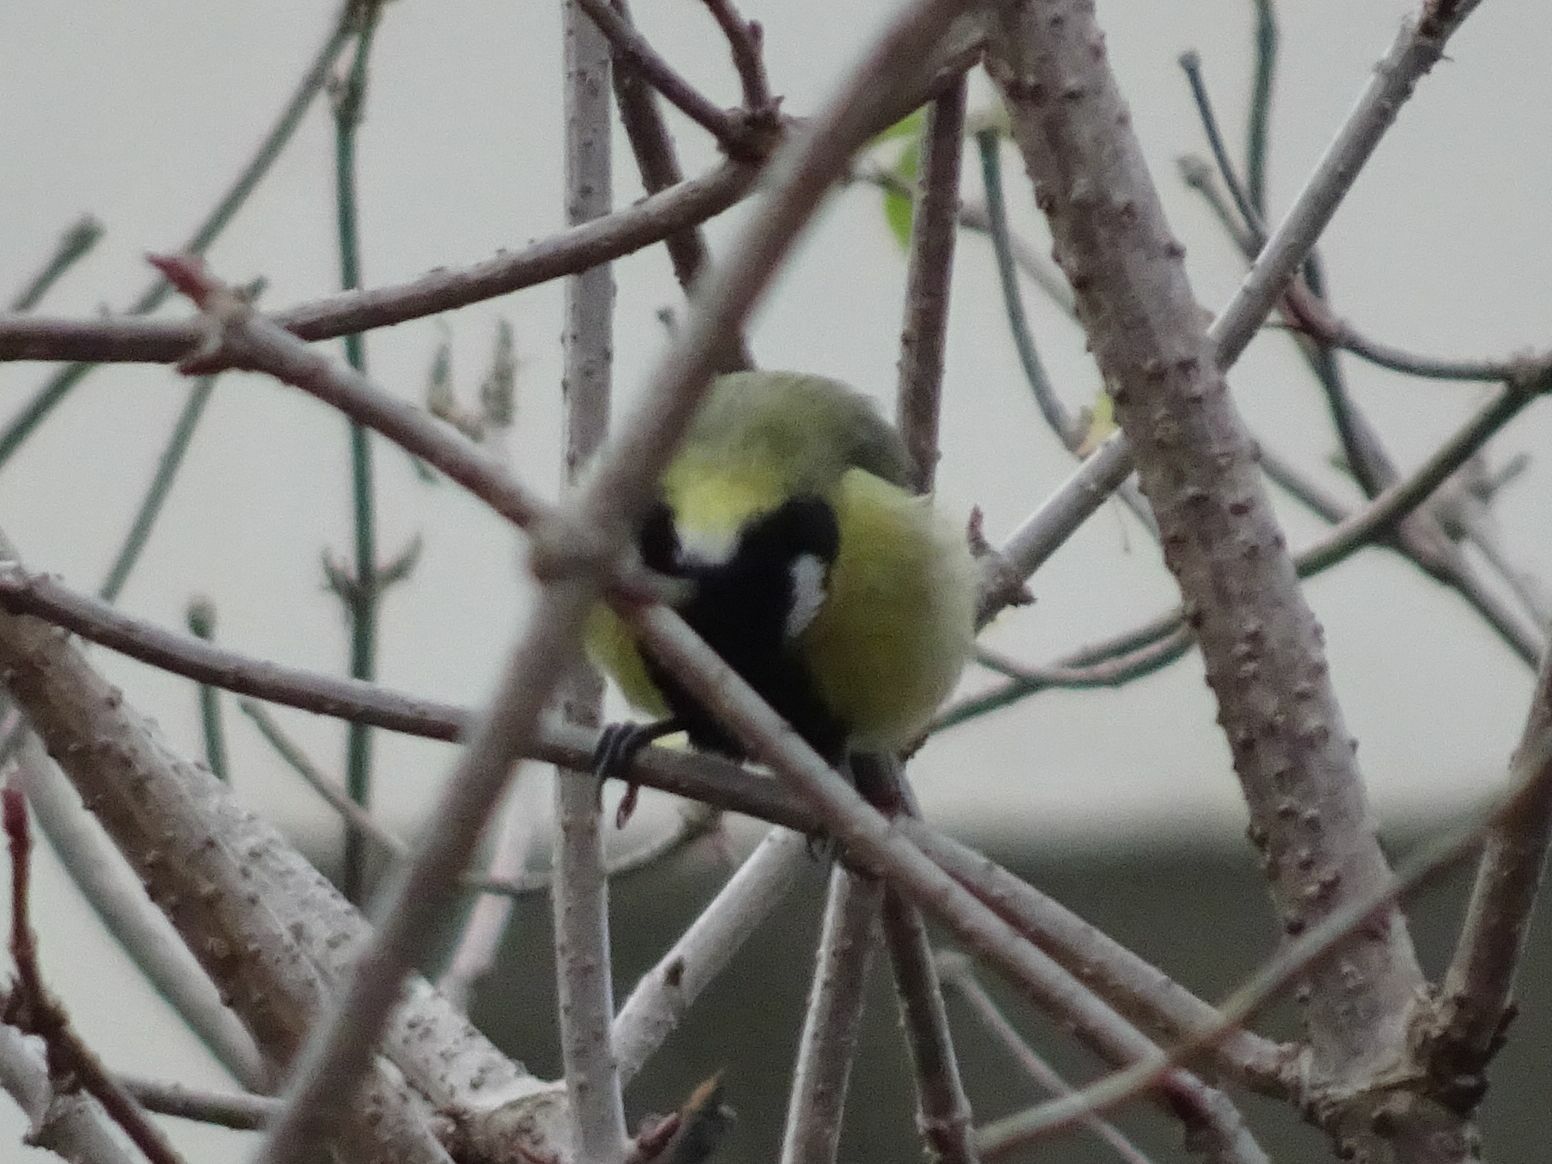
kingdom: Animalia
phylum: Chordata
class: Aves
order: Passeriformes
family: Paridae
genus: Parus
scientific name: Parus major
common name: Great tit
